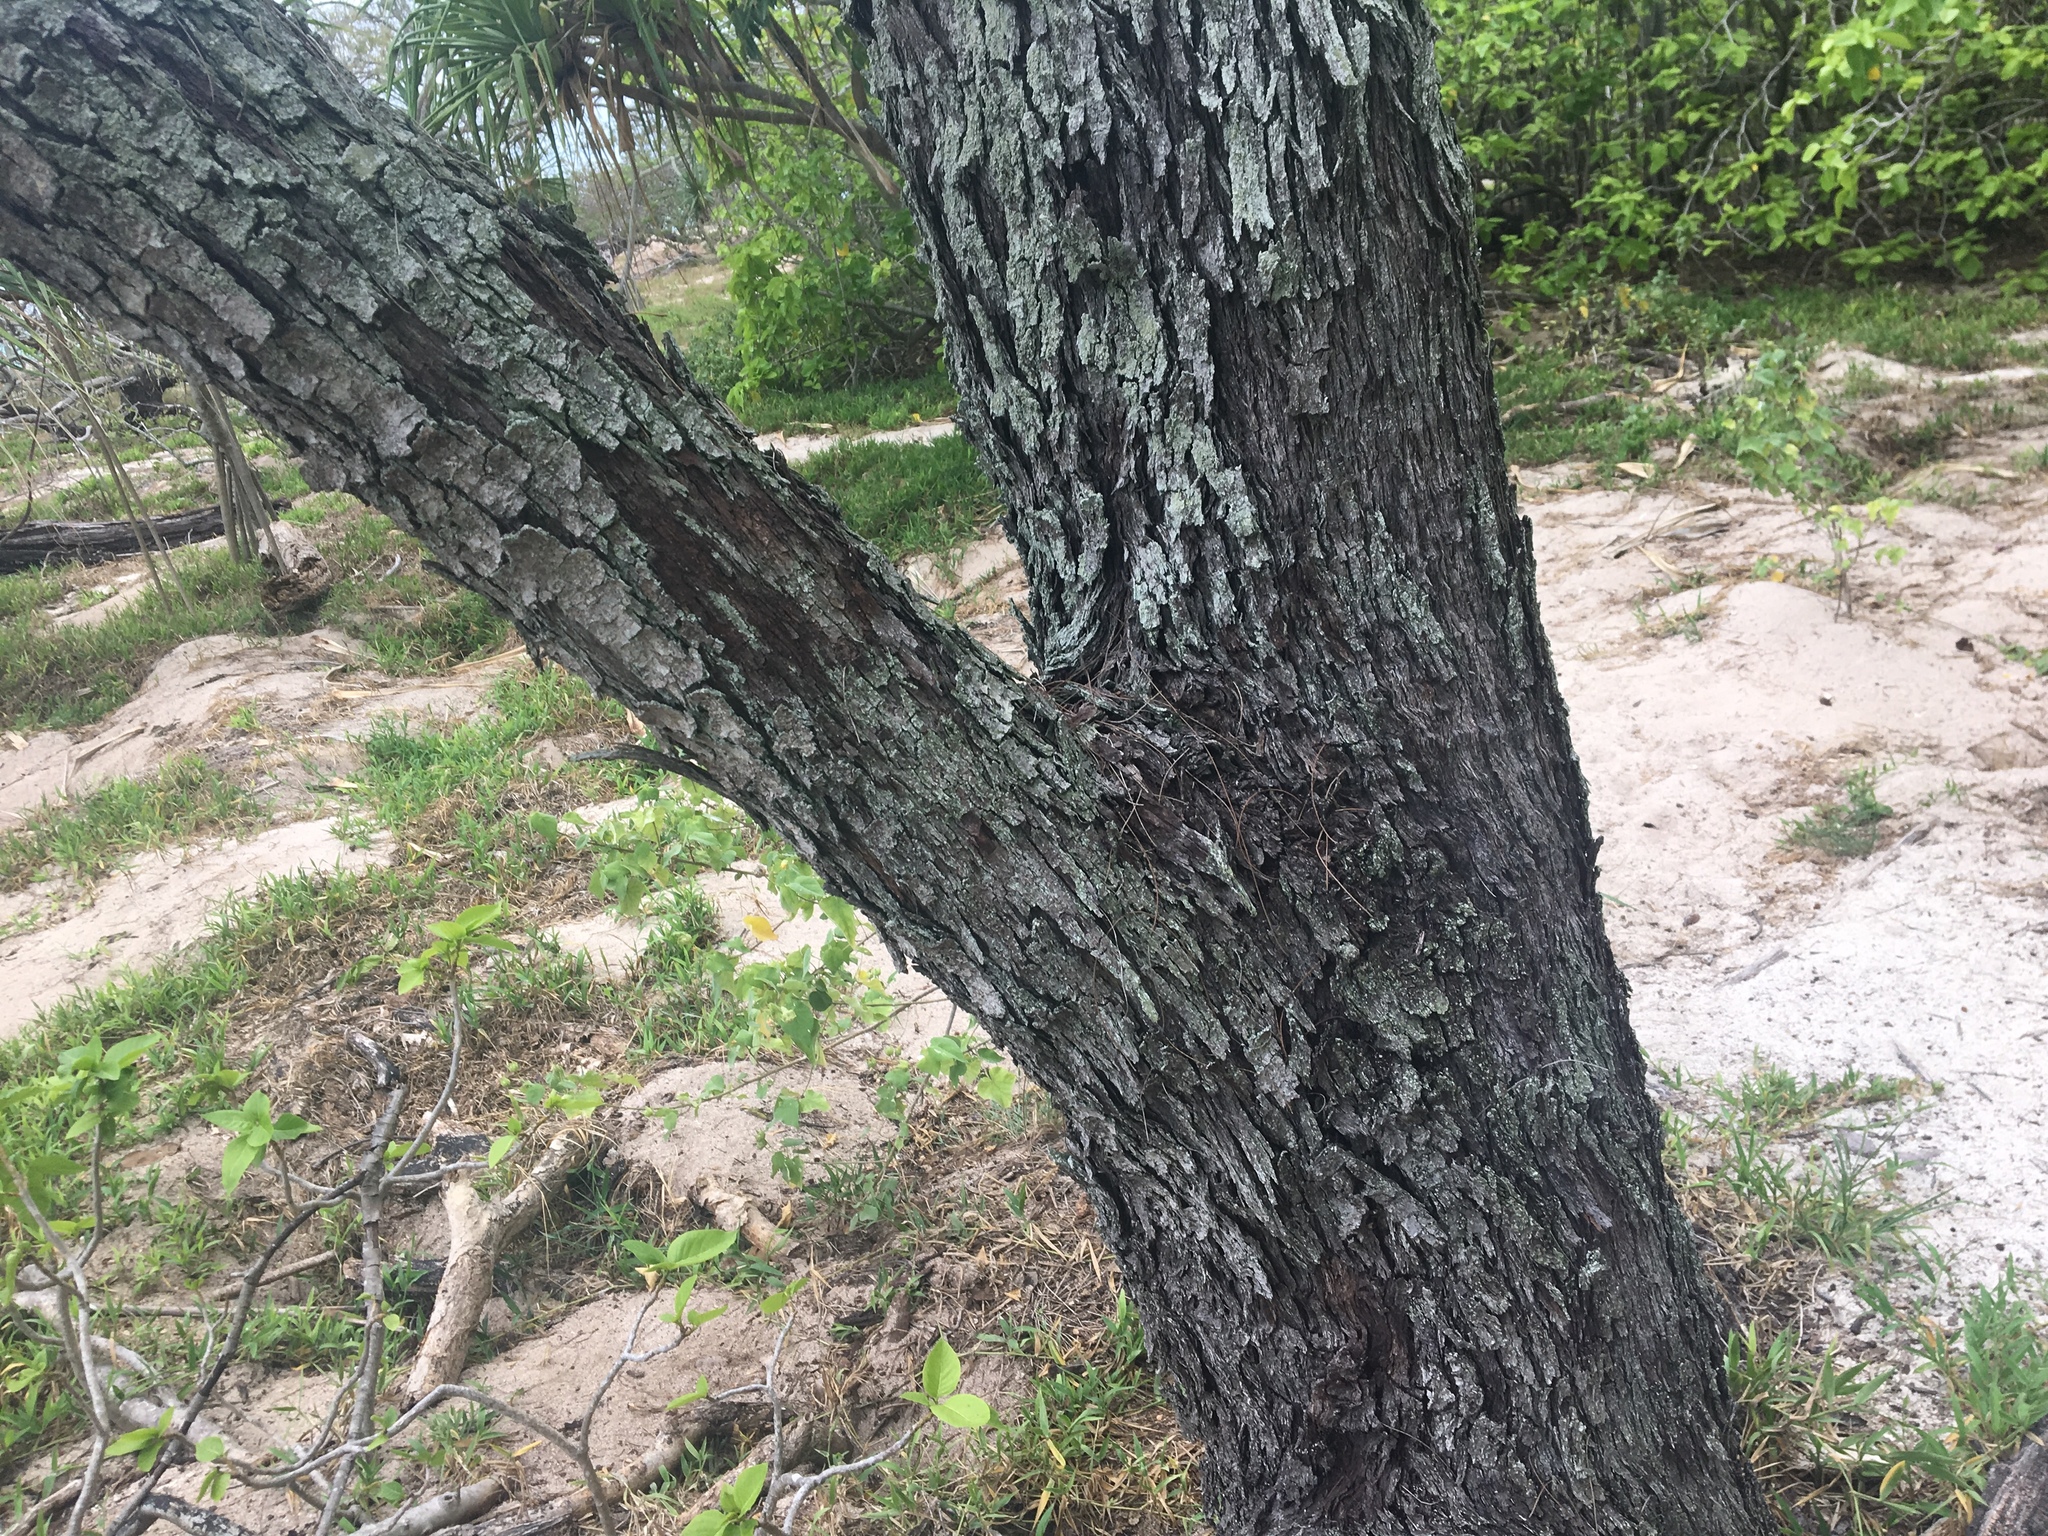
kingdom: Plantae
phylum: Tracheophyta
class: Magnoliopsida
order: Fagales
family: Casuarinaceae
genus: Casuarina
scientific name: Casuarina equisetifolia
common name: Beach sheoak
